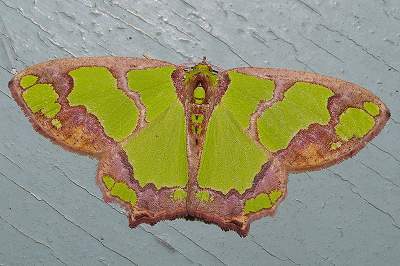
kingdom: Animalia
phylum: Arthropoda
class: Insecta
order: Lepidoptera
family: Geometridae
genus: Agathia
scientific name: Agathia visenda
